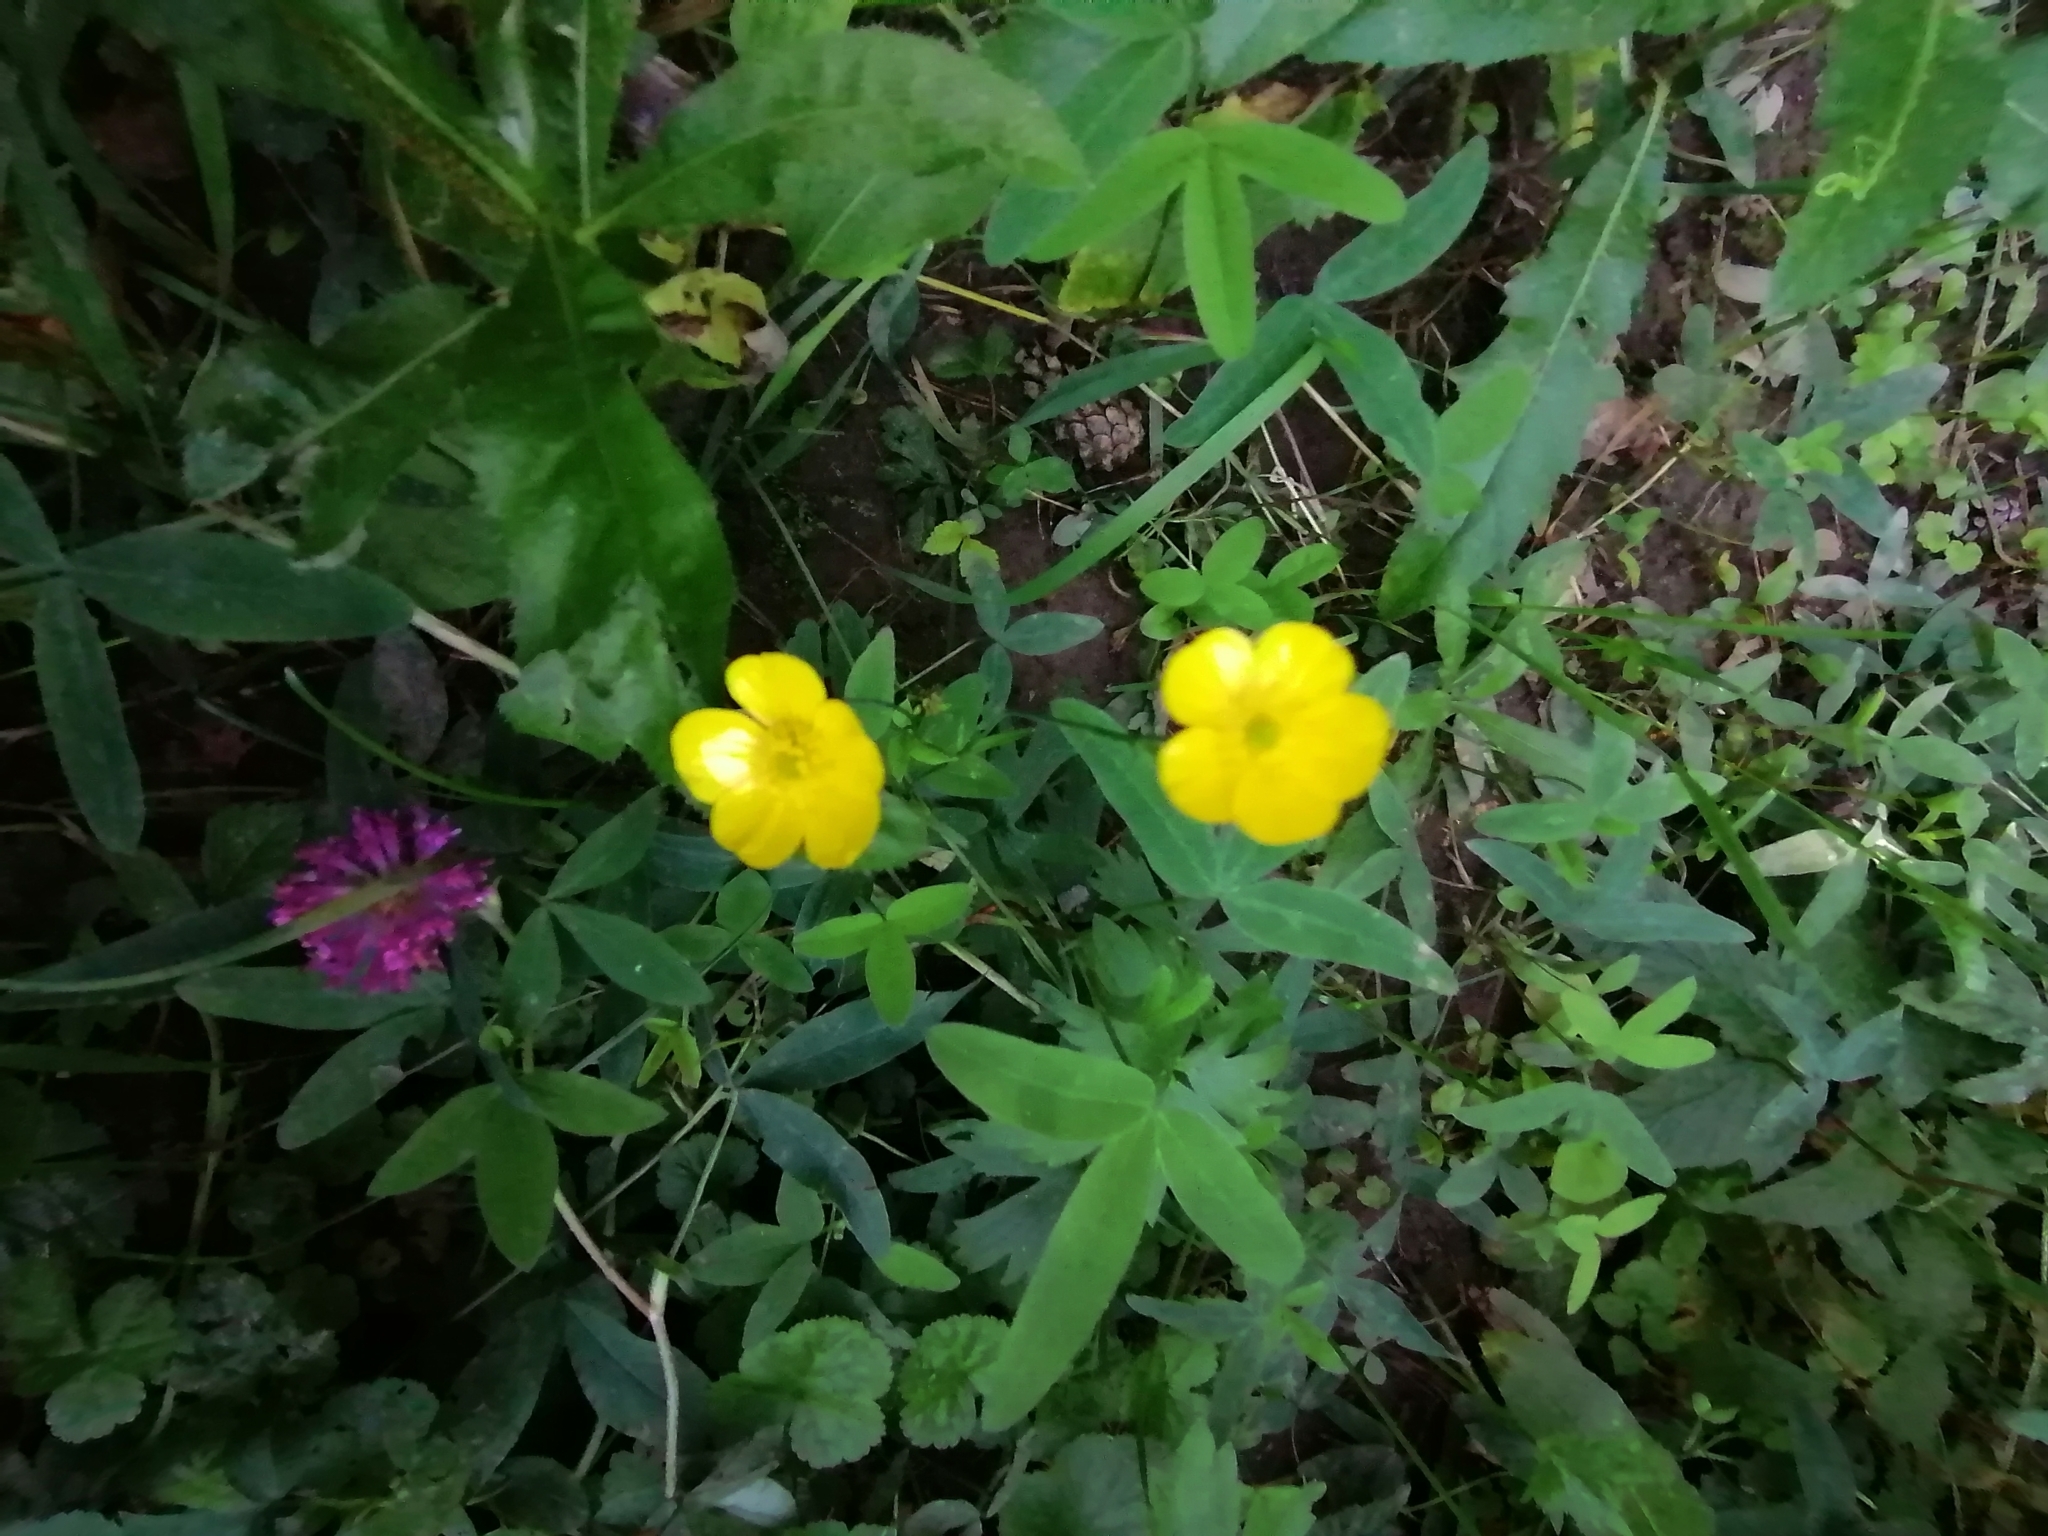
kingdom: Plantae
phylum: Tracheophyta
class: Magnoliopsida
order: Ranunculales
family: Ranunculaceae
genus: Ranunculus
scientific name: Ranunculus acris
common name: Meadow buttercup
